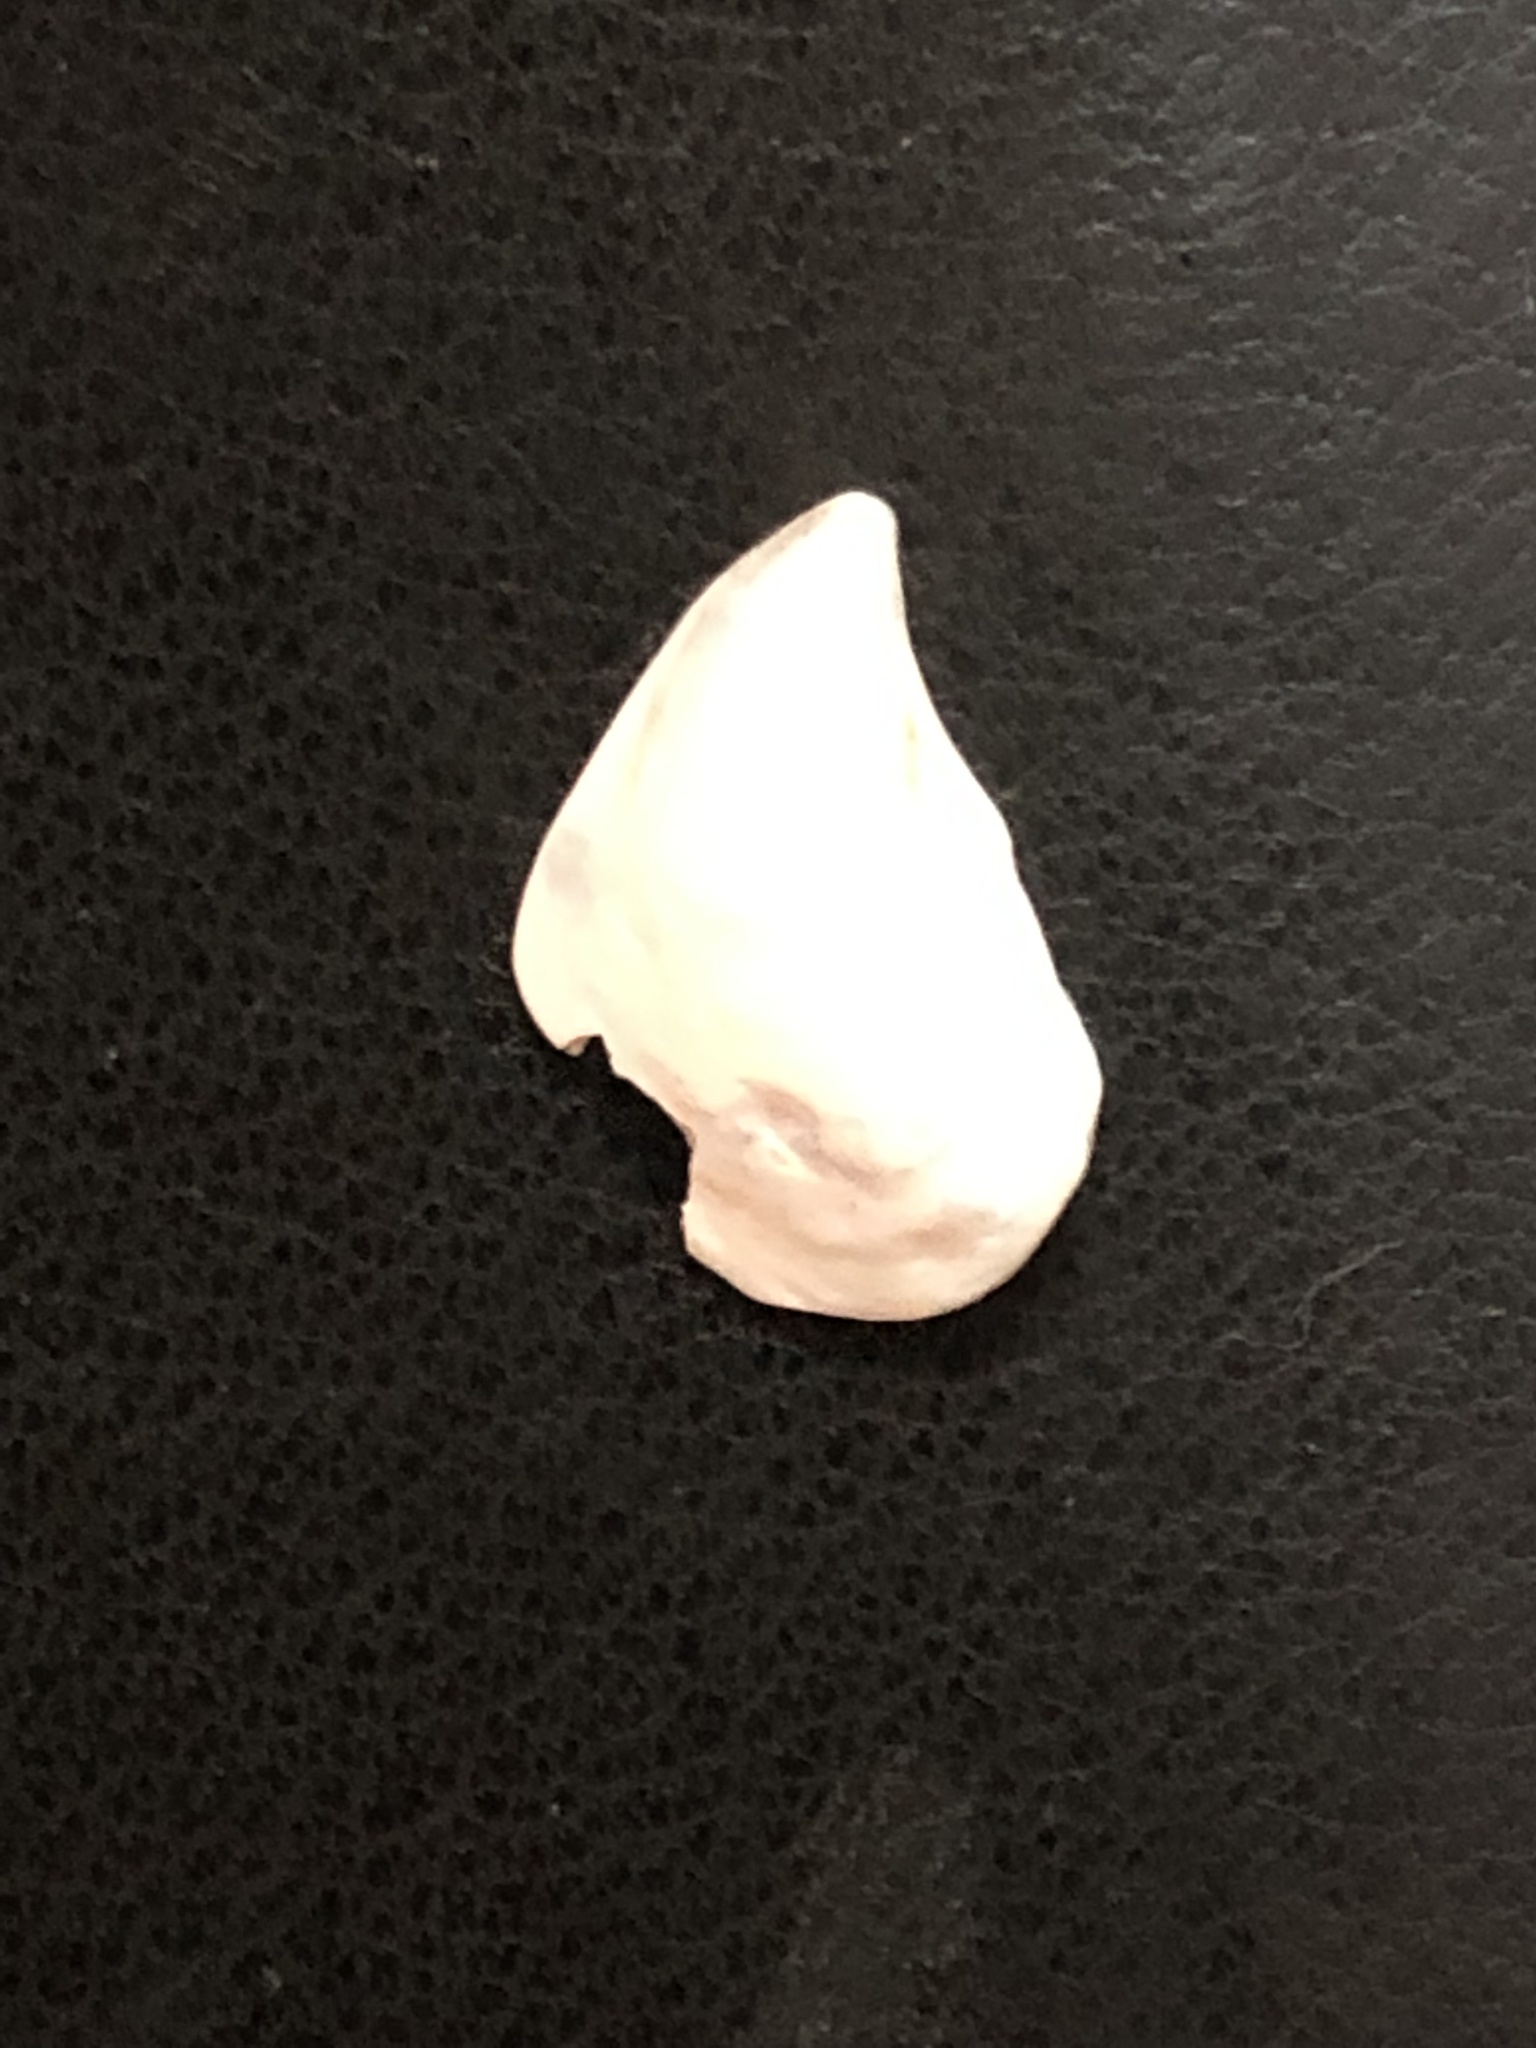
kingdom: Animalia
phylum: Mollusca
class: Bivalvia
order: Myida
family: Dreissenidae
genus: Dreissena
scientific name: Dreissena bugensis
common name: Quagga mussel
